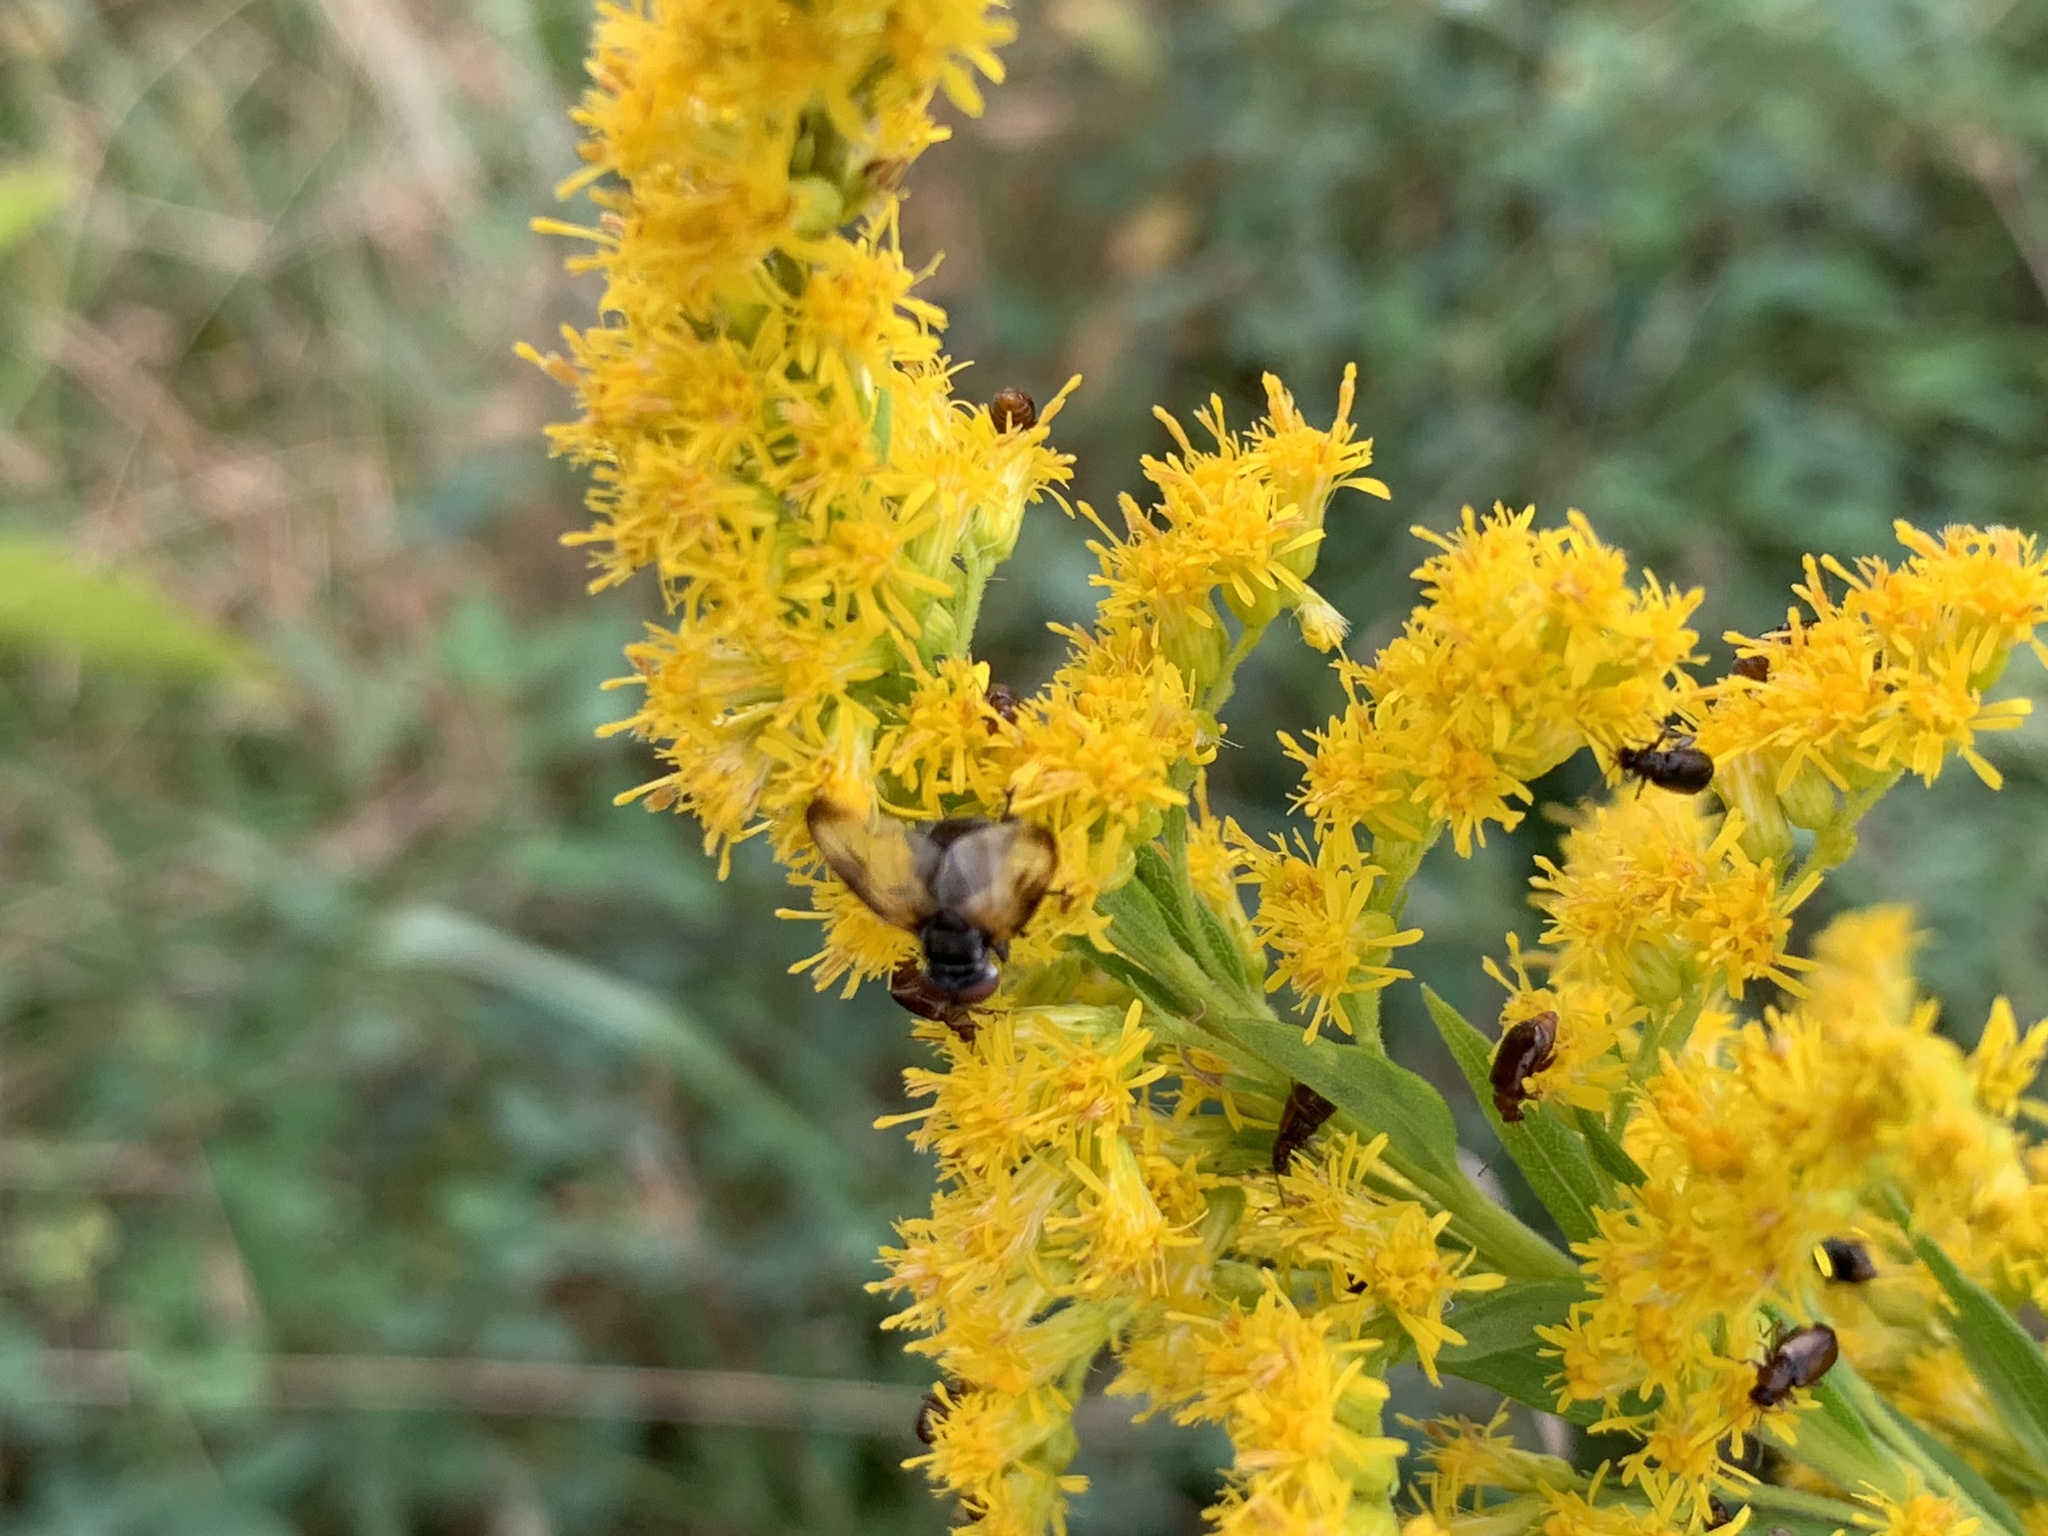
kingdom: Animalia
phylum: Arthropoda
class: Insecta
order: Diptera
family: Tachinidae
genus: Phasia
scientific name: Phasia
